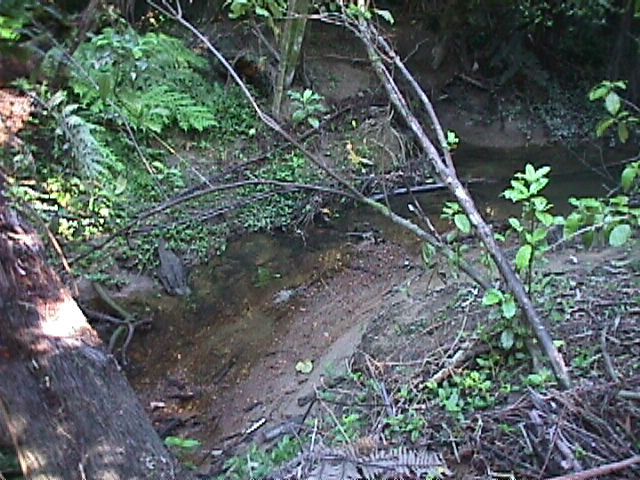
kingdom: Plantae
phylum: Tracheophyta
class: Magnoliopsida
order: Gentianales
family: Rubiaceae
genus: Coprosma
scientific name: Coprosma robusta
